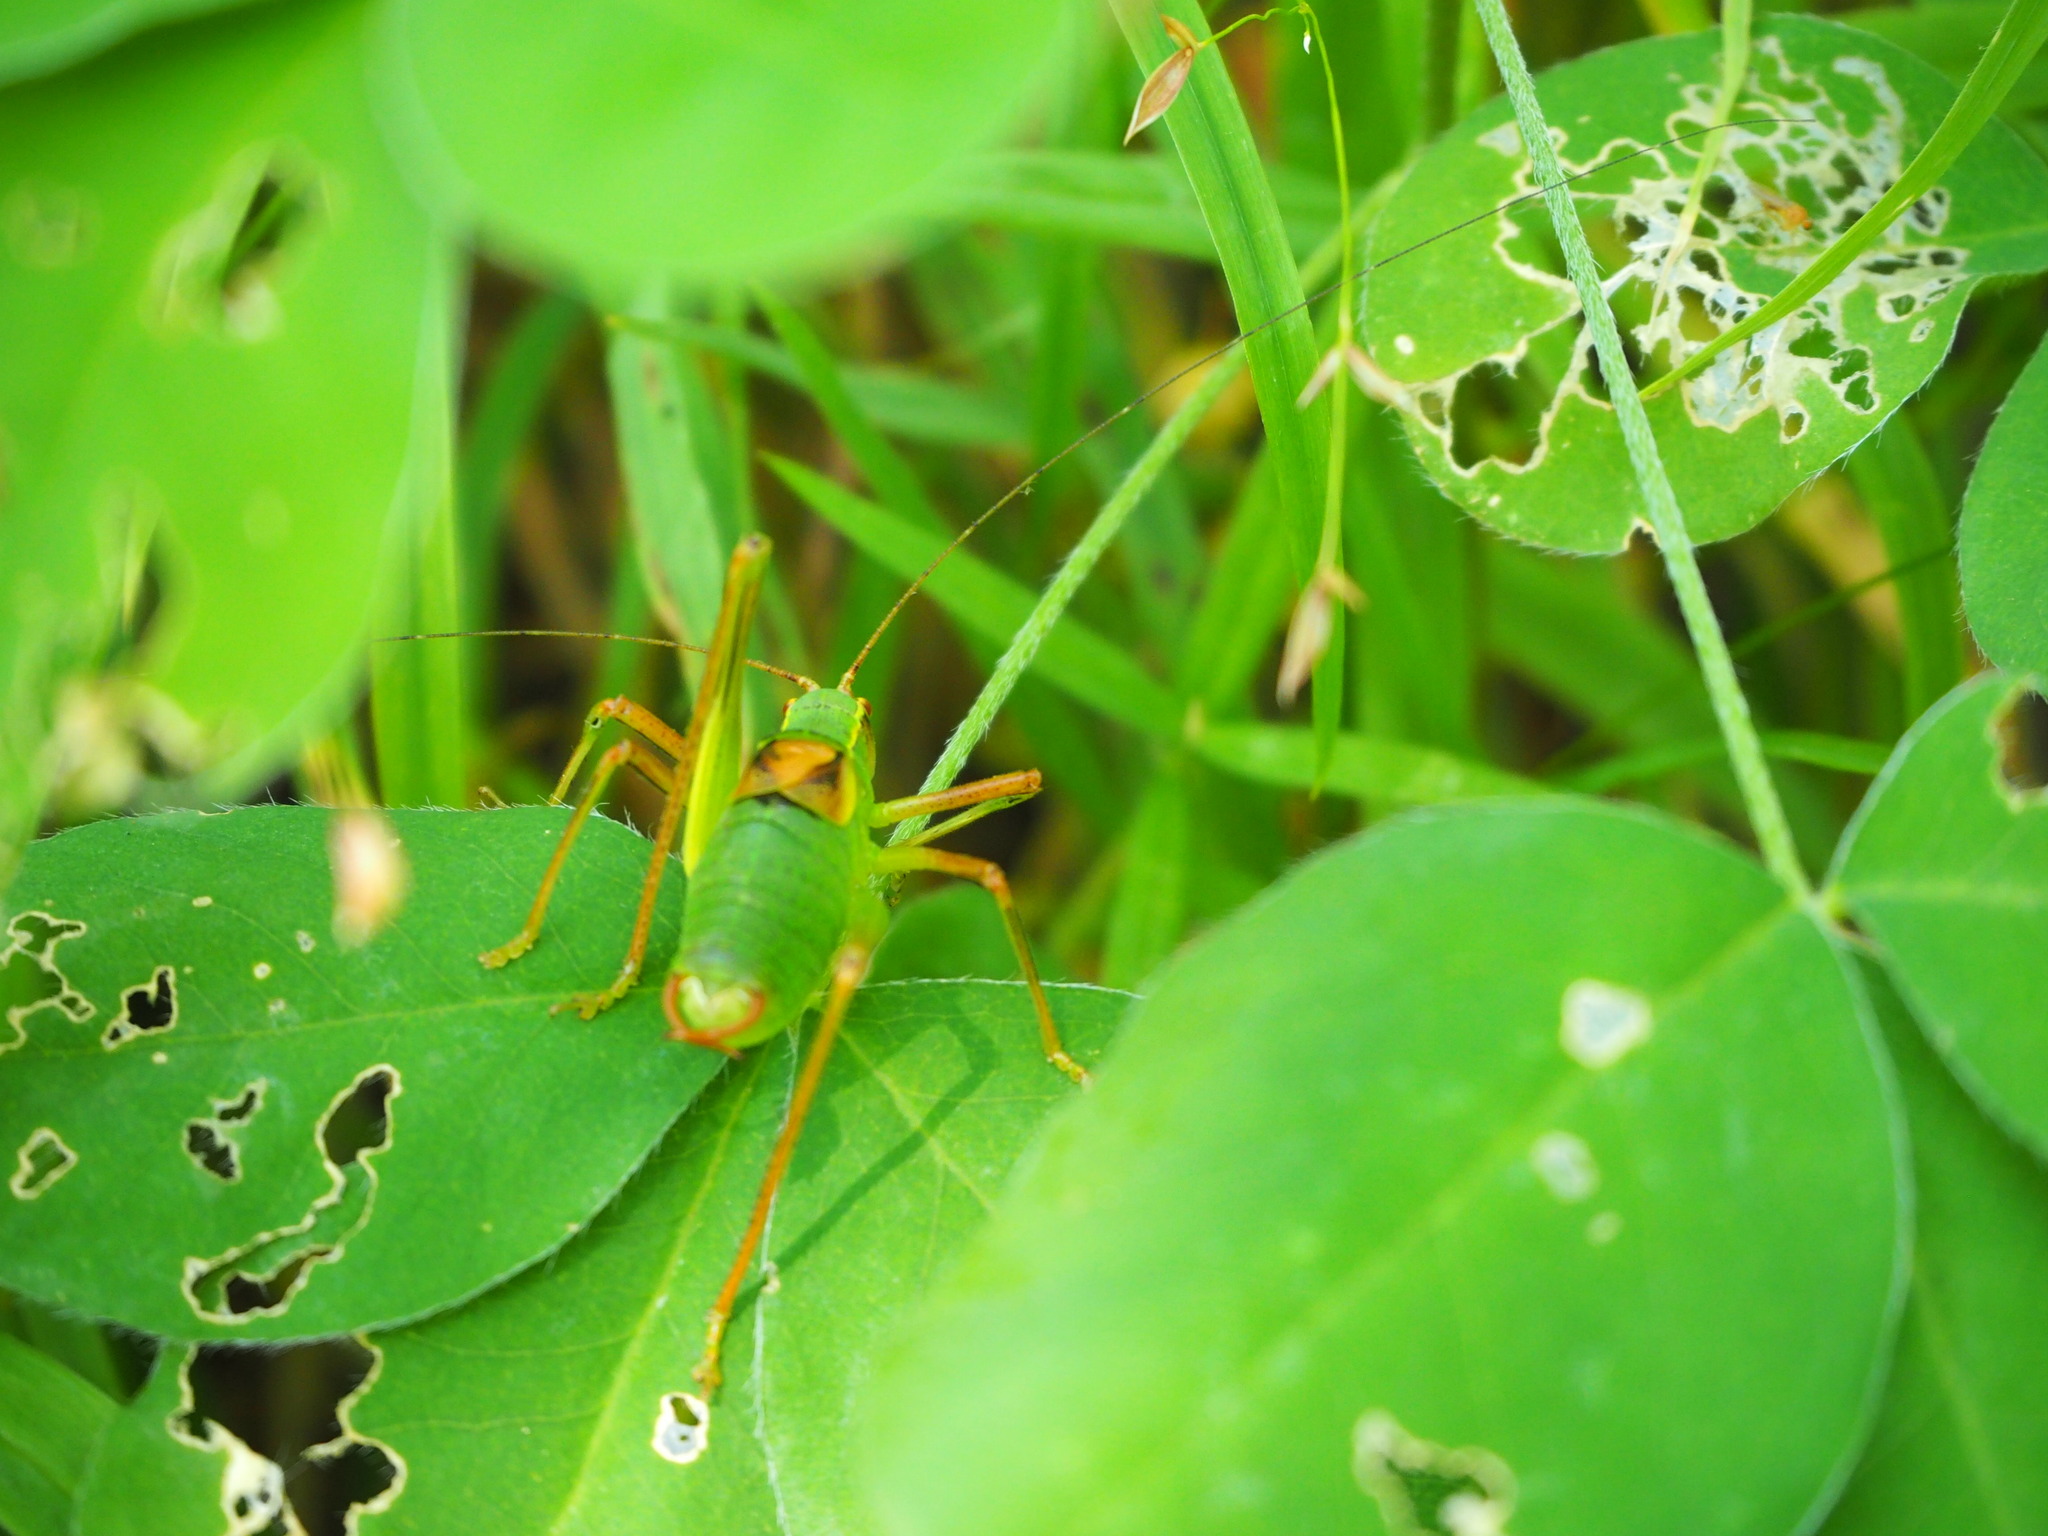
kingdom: Animalia
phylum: Arthropoda
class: Insecta
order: Orthoptera
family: Tettigoniidae
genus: Barbitistes
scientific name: Barbitistes obtusus
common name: Alpine saw bush-cricket
